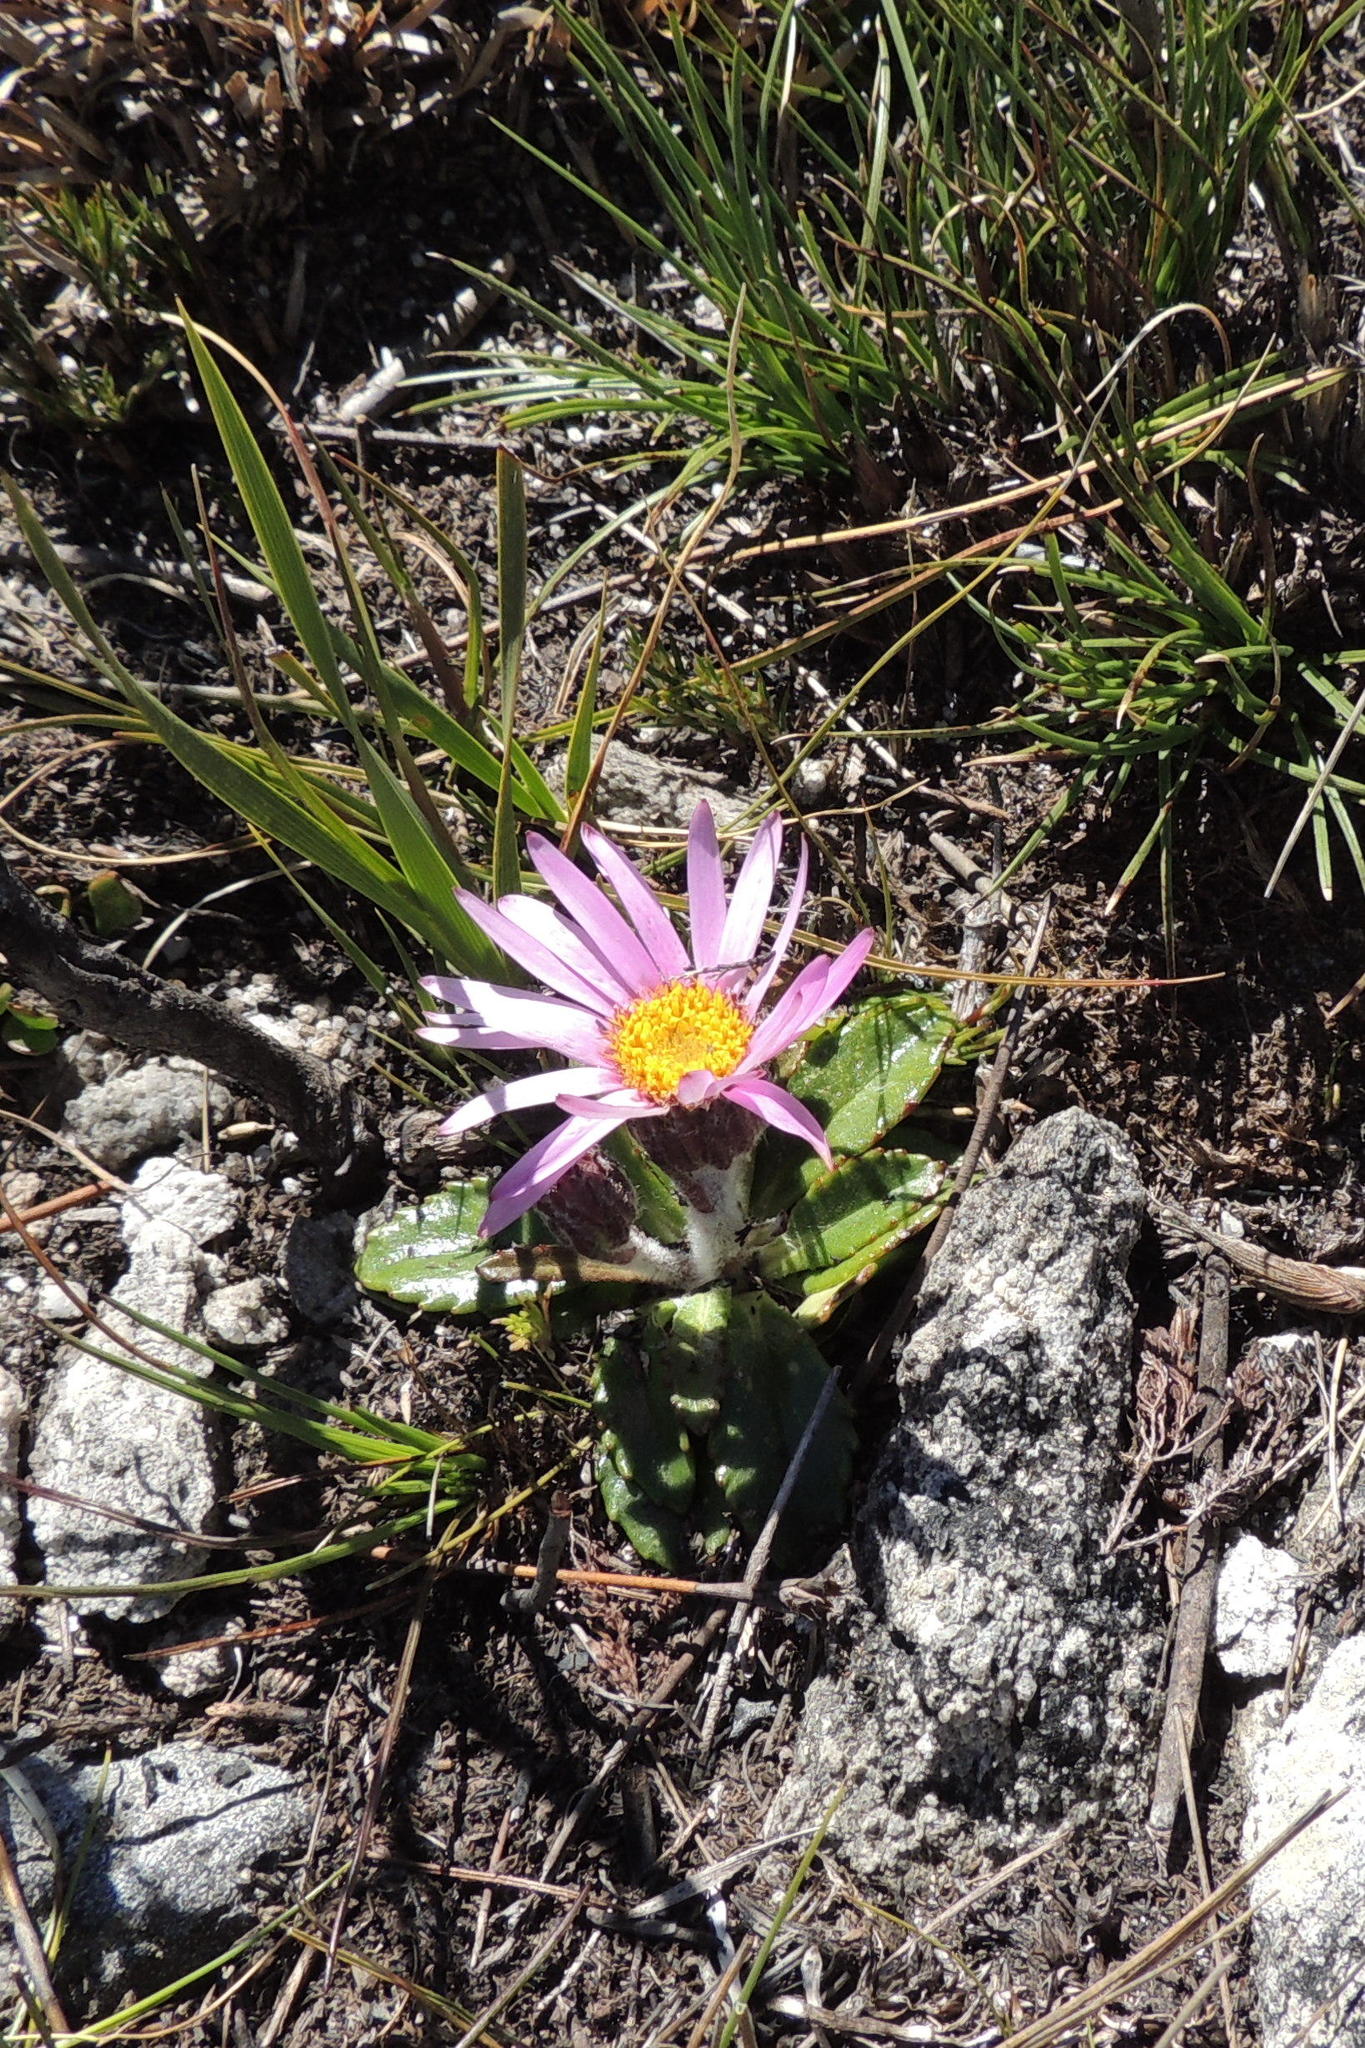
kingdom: Plantae
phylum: Tracheophyta
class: Magnoliopsida
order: Asterales
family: Asteraceae
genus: Zyrphelis
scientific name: Zyrphelis crenata
